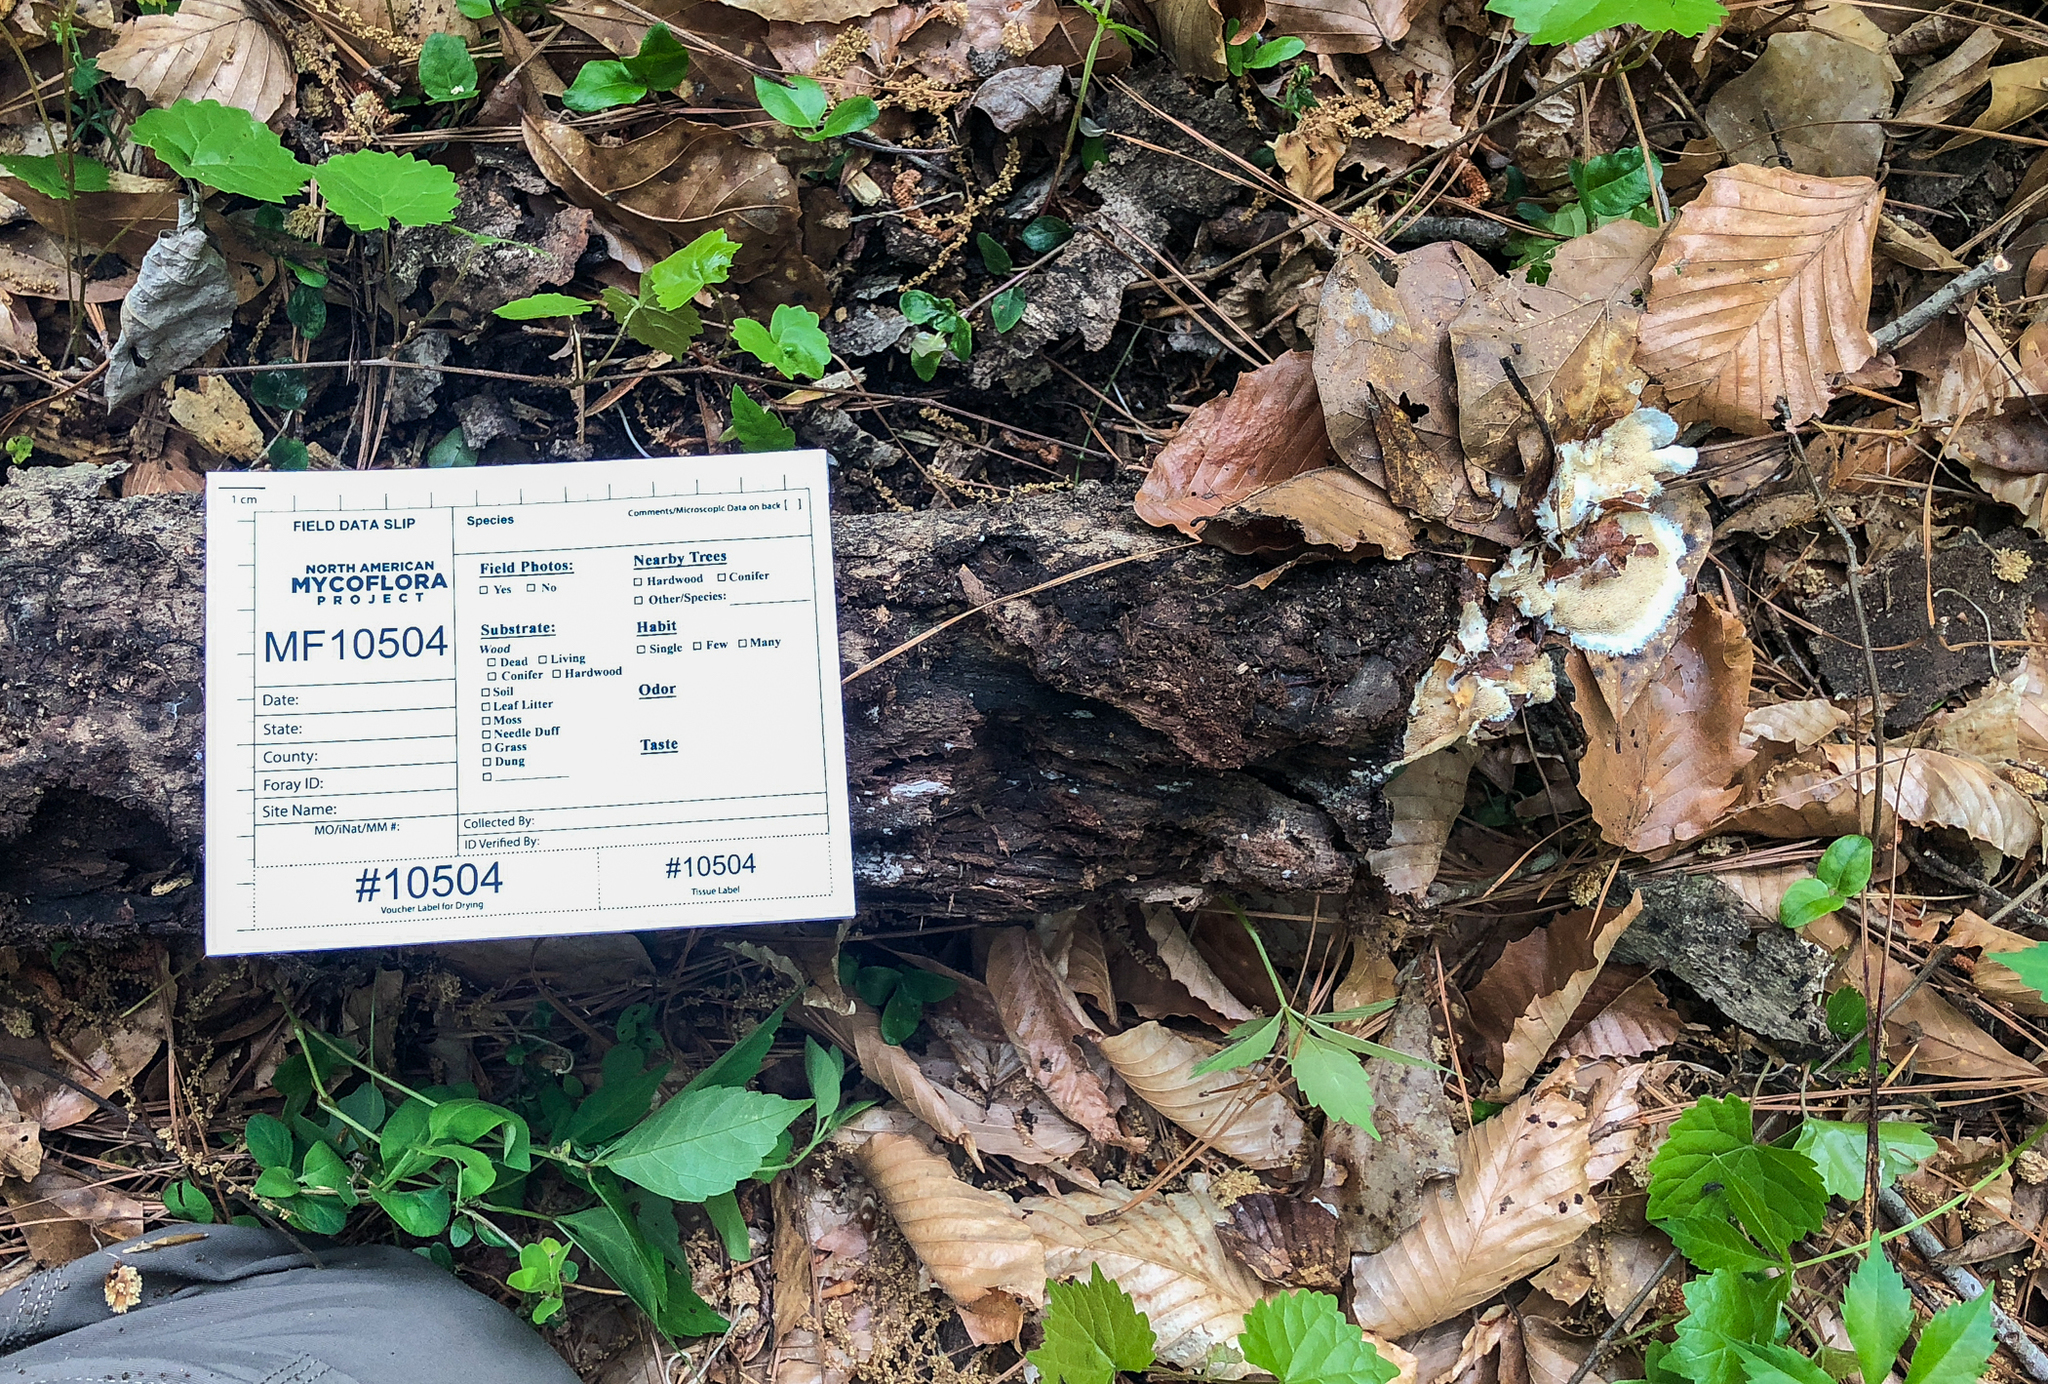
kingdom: Fungi
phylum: Basidiomycota
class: Agaricomycetes
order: Polyporales
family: Meruliaceae
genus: Donkia
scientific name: Donkia pulcherrima
